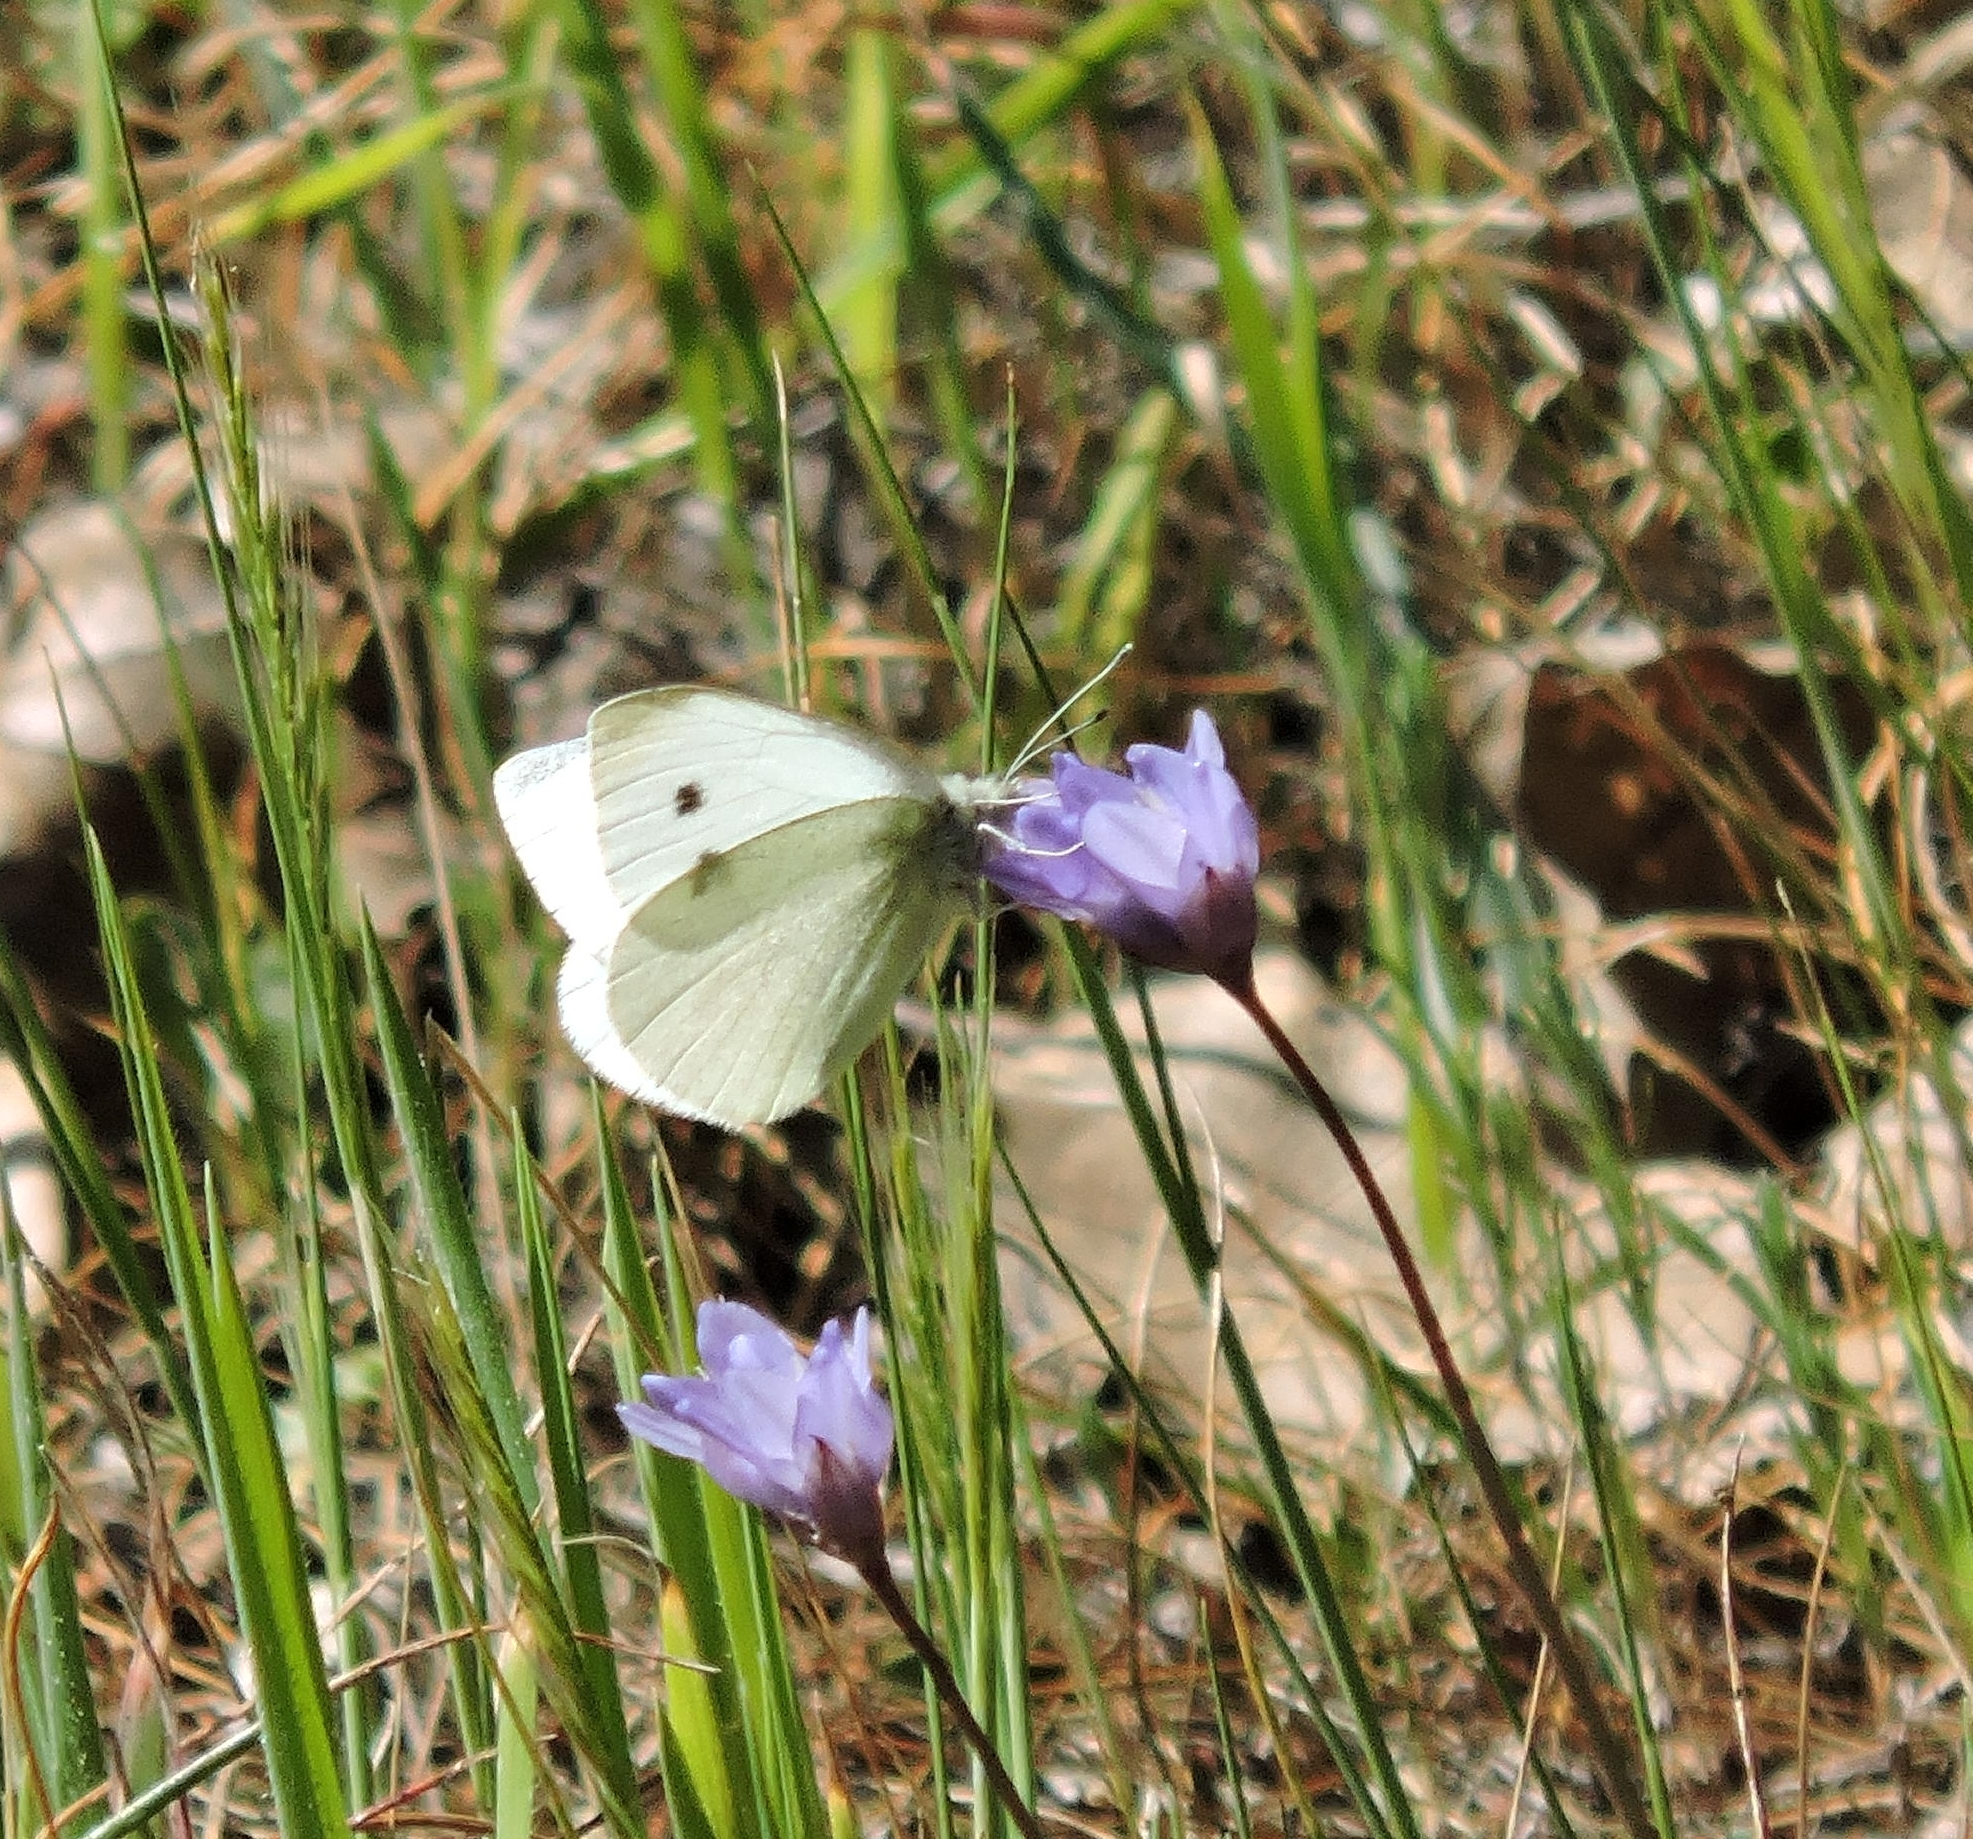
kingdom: Animalia
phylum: Arthropoda
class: Insecta
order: Lepidoptera
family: Pieridae
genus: Pieris
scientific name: Pieris rapae
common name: Small white
